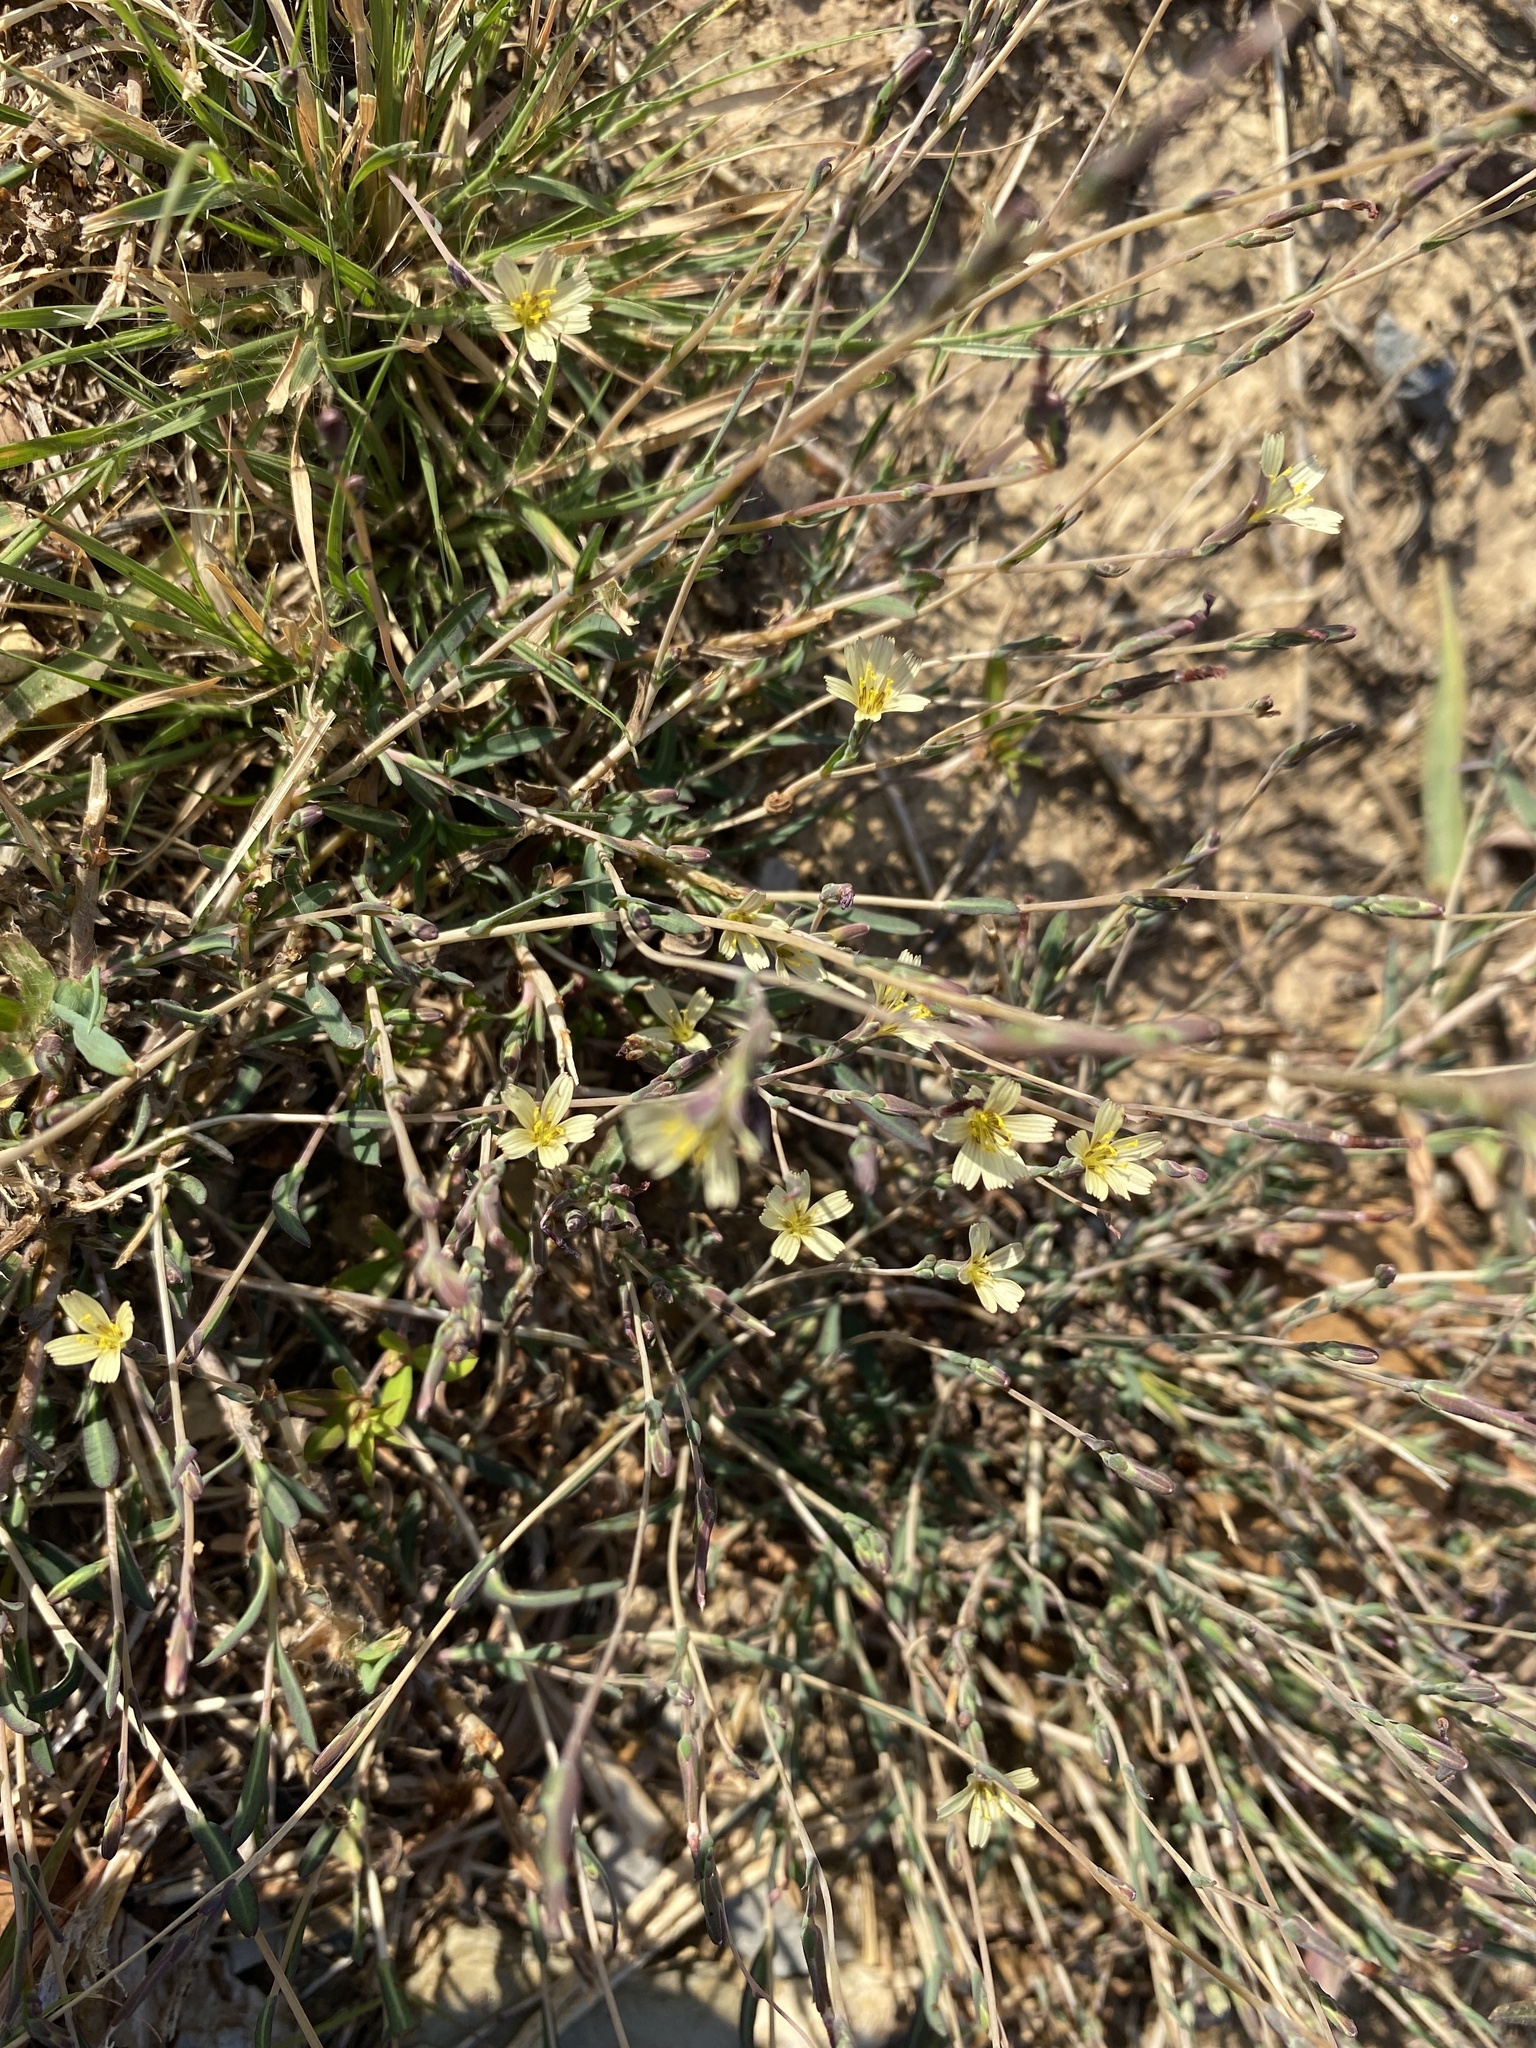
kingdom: Plantae
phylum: Tracheophyta
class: Magnoliopsida
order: Asterales
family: Asteraceae
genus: Lactuca
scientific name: Lactuca saligna
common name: Wild lettuce
